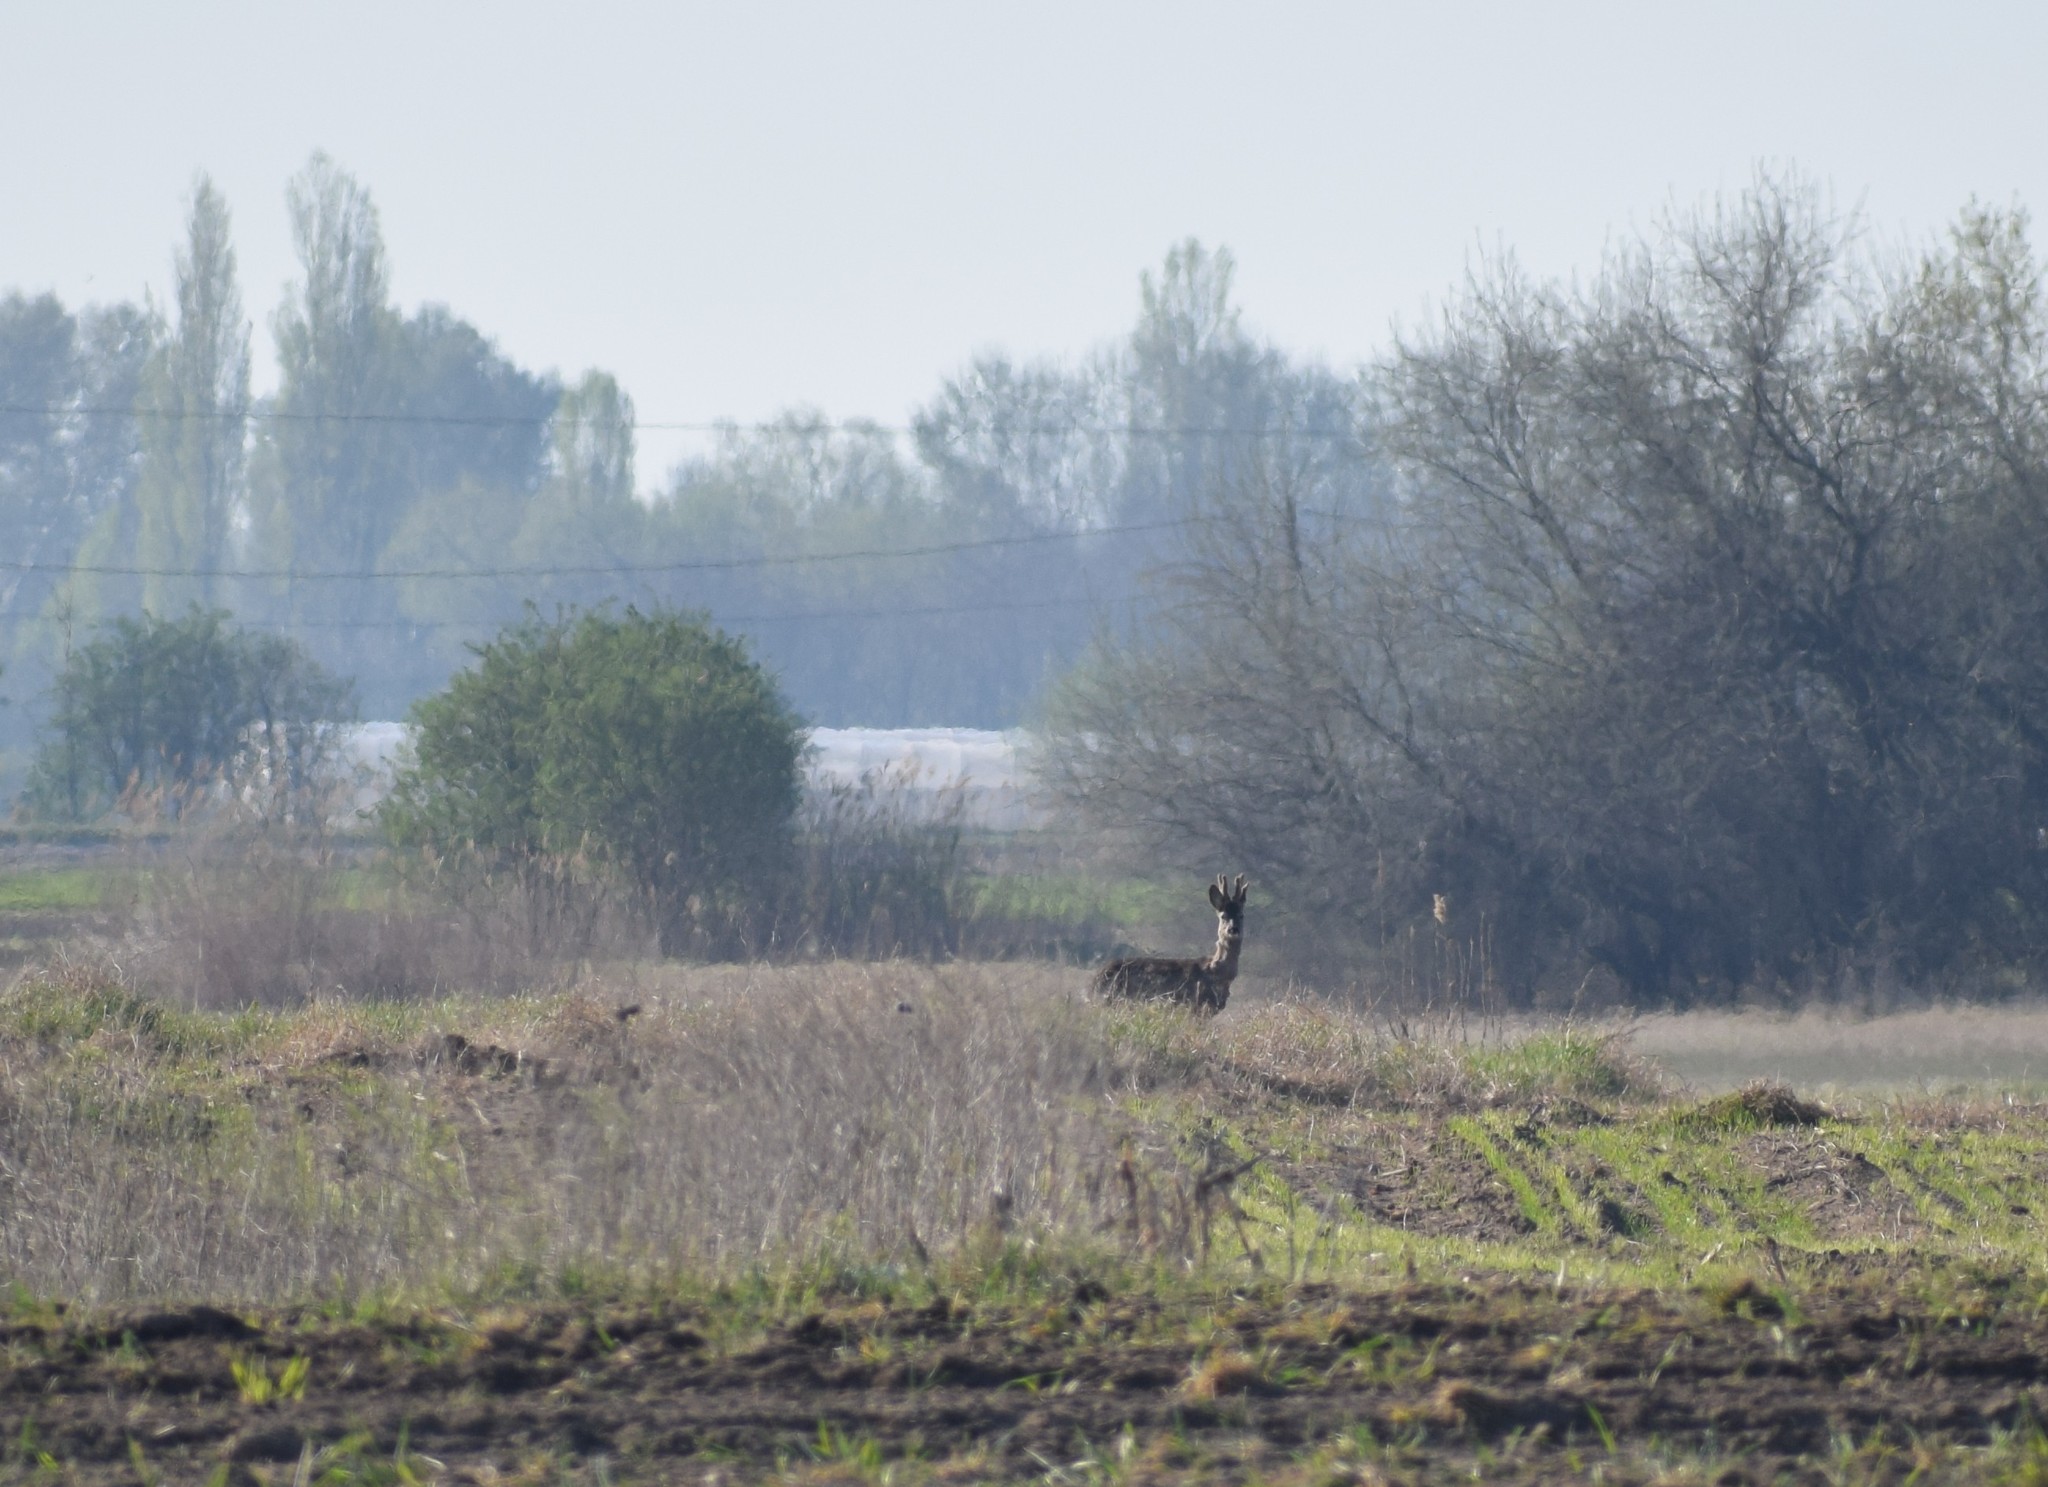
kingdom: Animalia
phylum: Chordata
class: Mammalia
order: Artiodactyla
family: Cervidae
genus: Capreolus
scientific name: Capreolus capreolus
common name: Western roe deer
